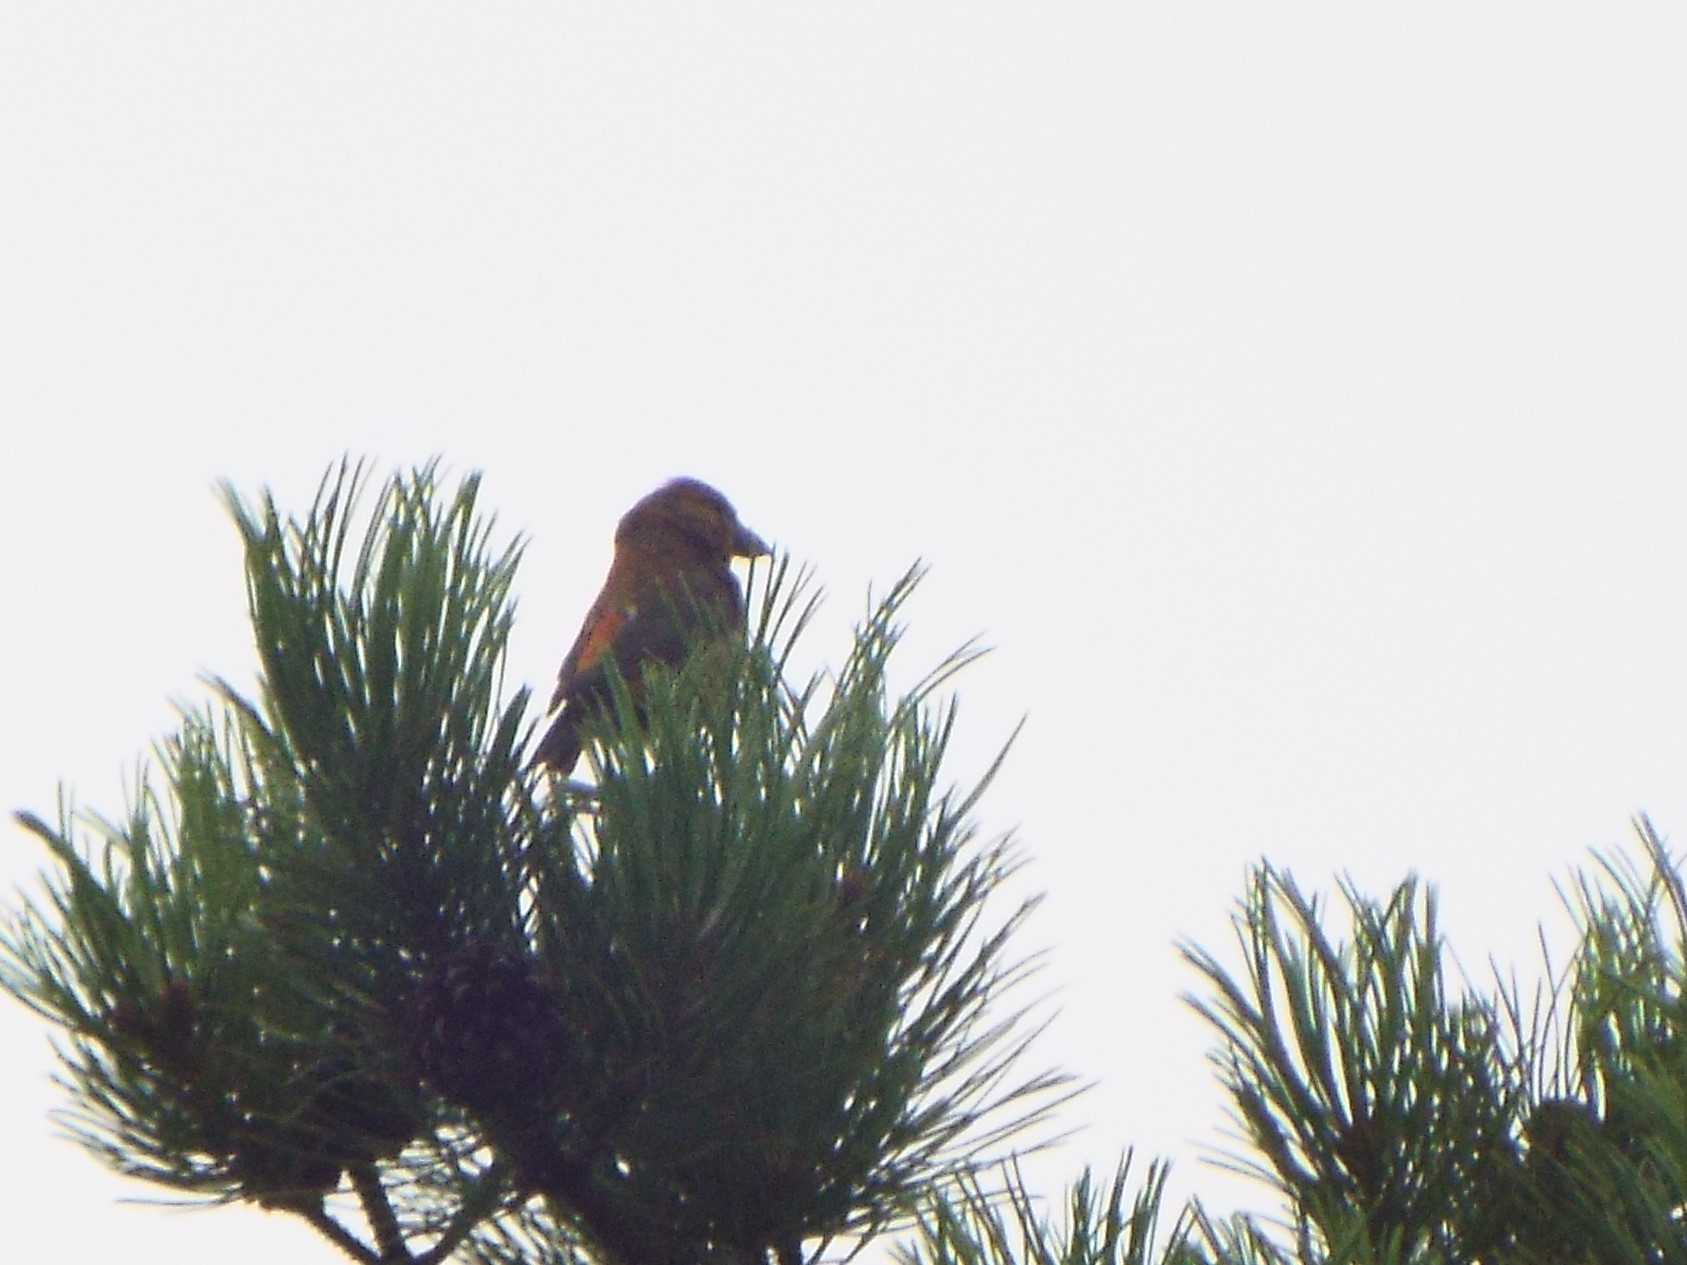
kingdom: Animalia
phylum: Chordata
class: Aves
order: Passeriformes
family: Fringillidae
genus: Loxia
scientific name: Loxia curvirostra
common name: Red crossbill
